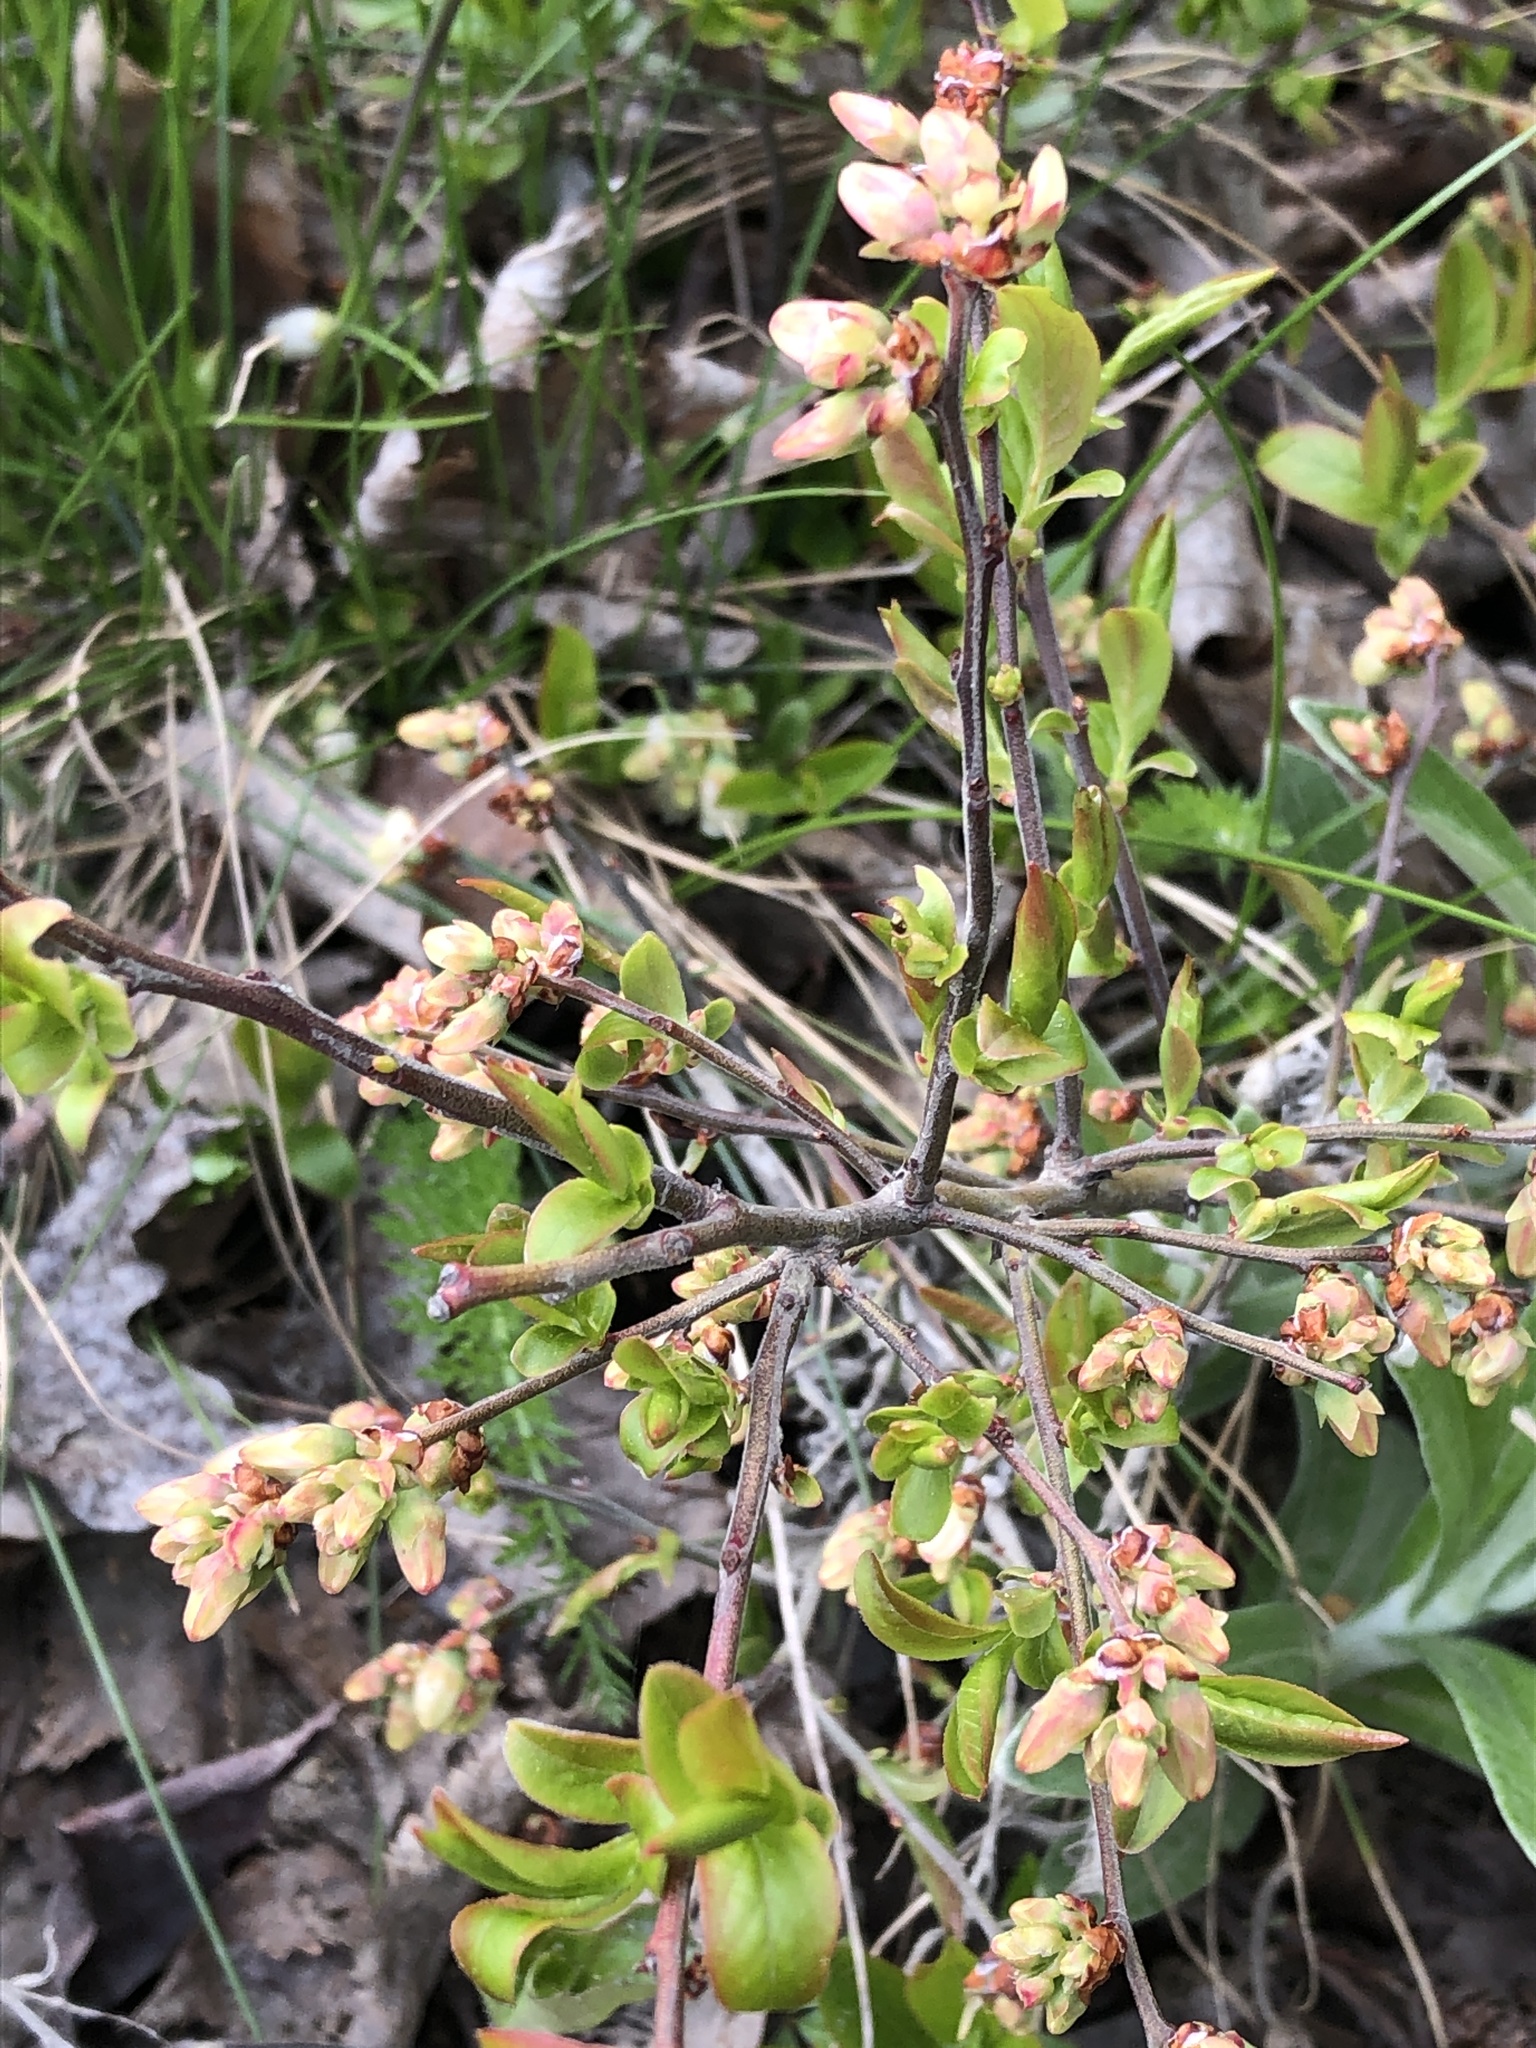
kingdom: Plantae
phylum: Tracheophyta
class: Magnoliopsida
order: Ericales
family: Ericaceae
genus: Vaccinium
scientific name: Vaccinium angustifolium
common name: Early lowbush blueberry
